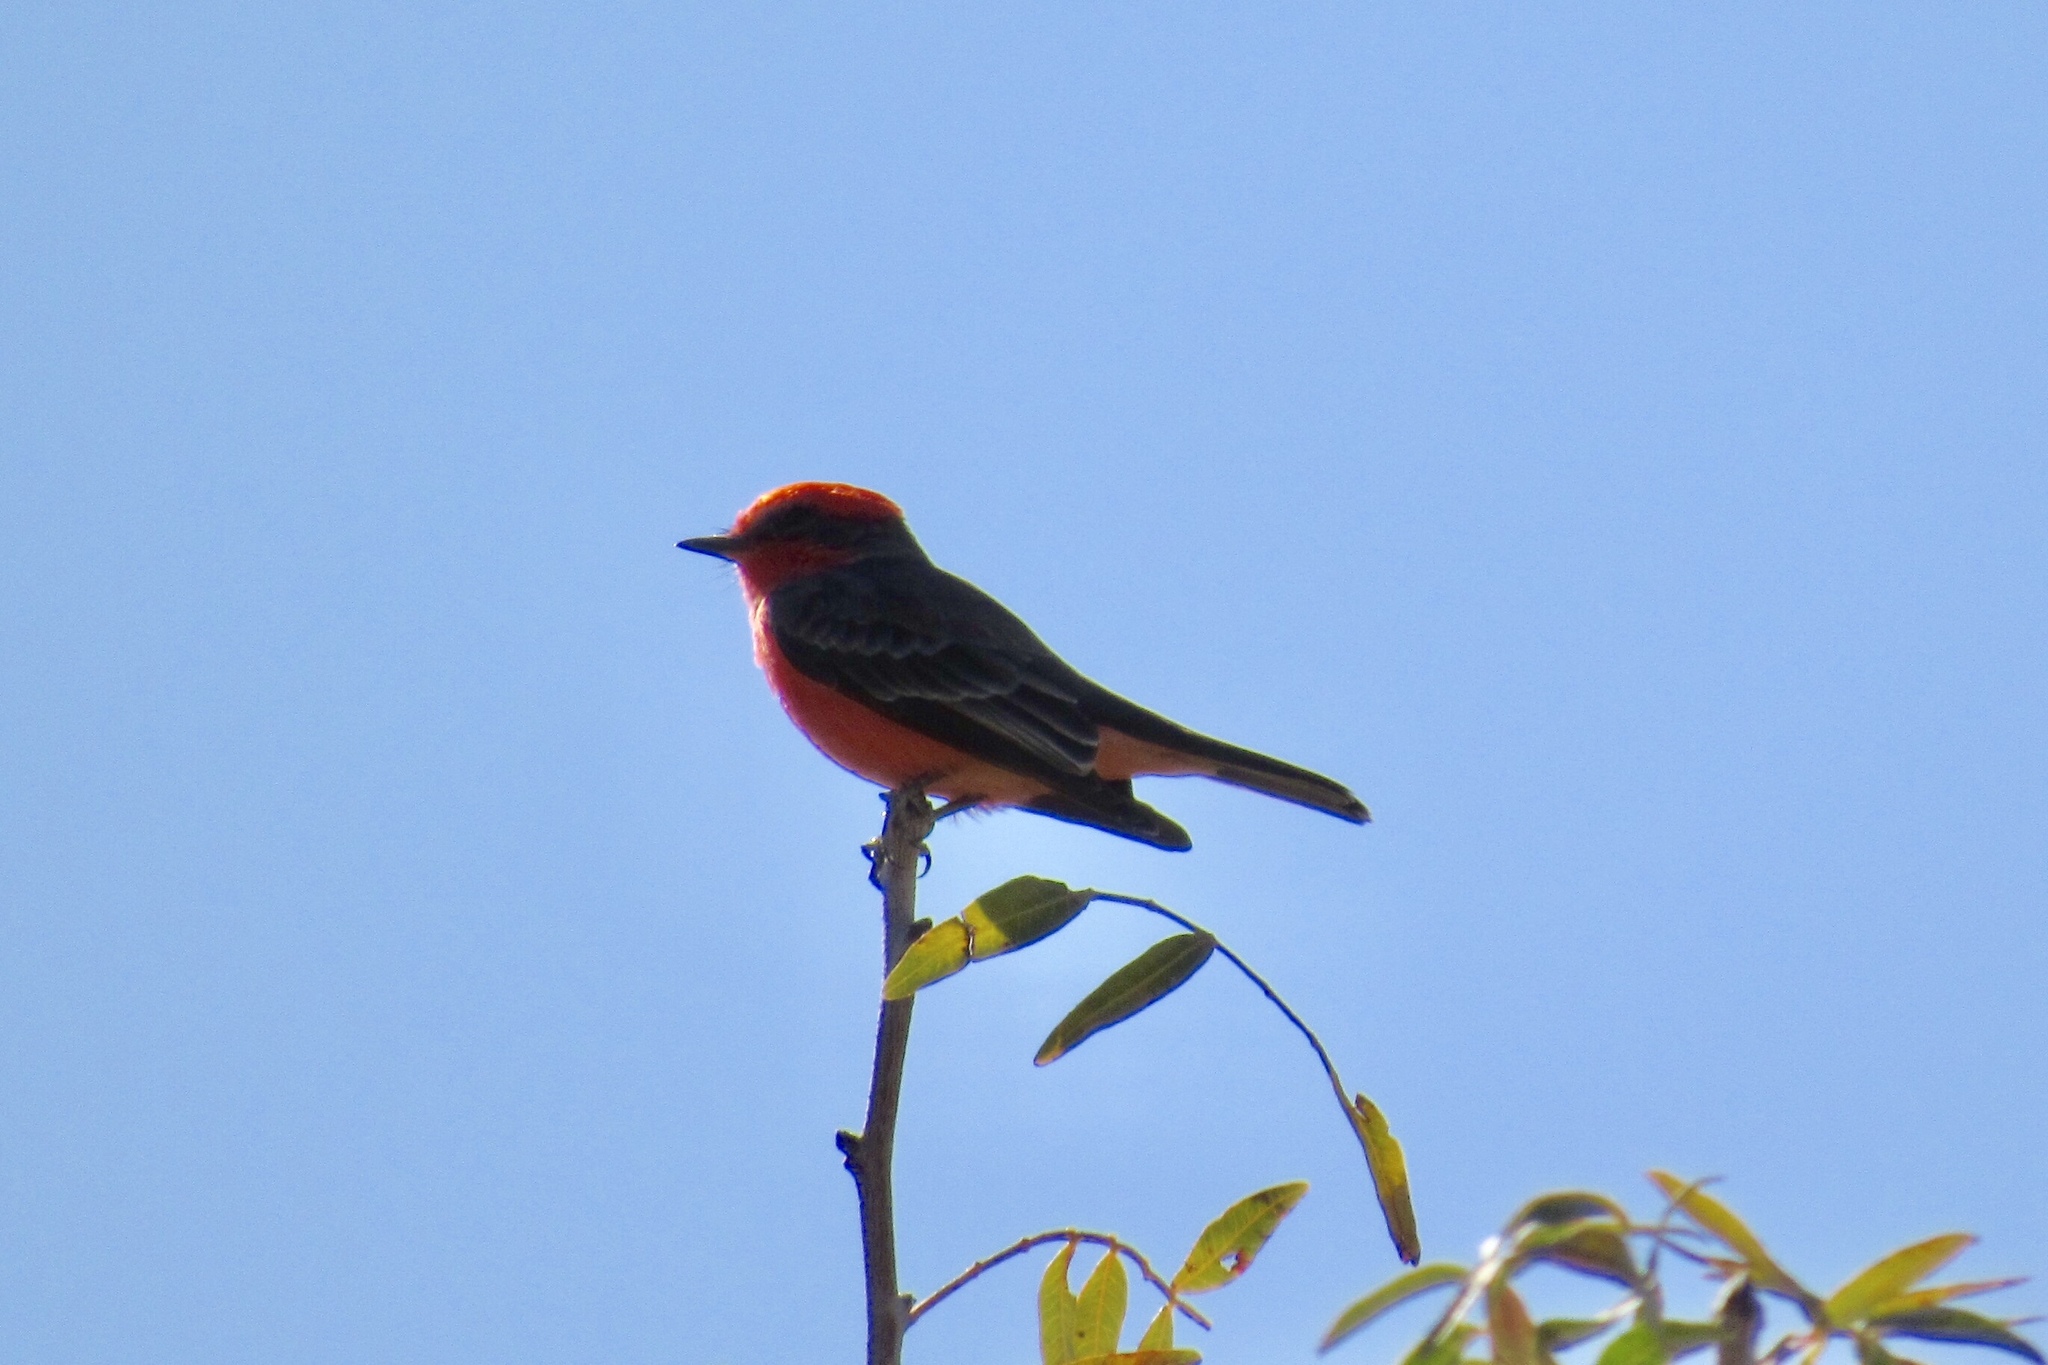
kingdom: Animalia
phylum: Chordata
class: Aves
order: Passeriformes
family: Tyrannidae
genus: Pyrocephalus
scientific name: Pyrocephalus rubinus
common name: Vermilion flycatcher
